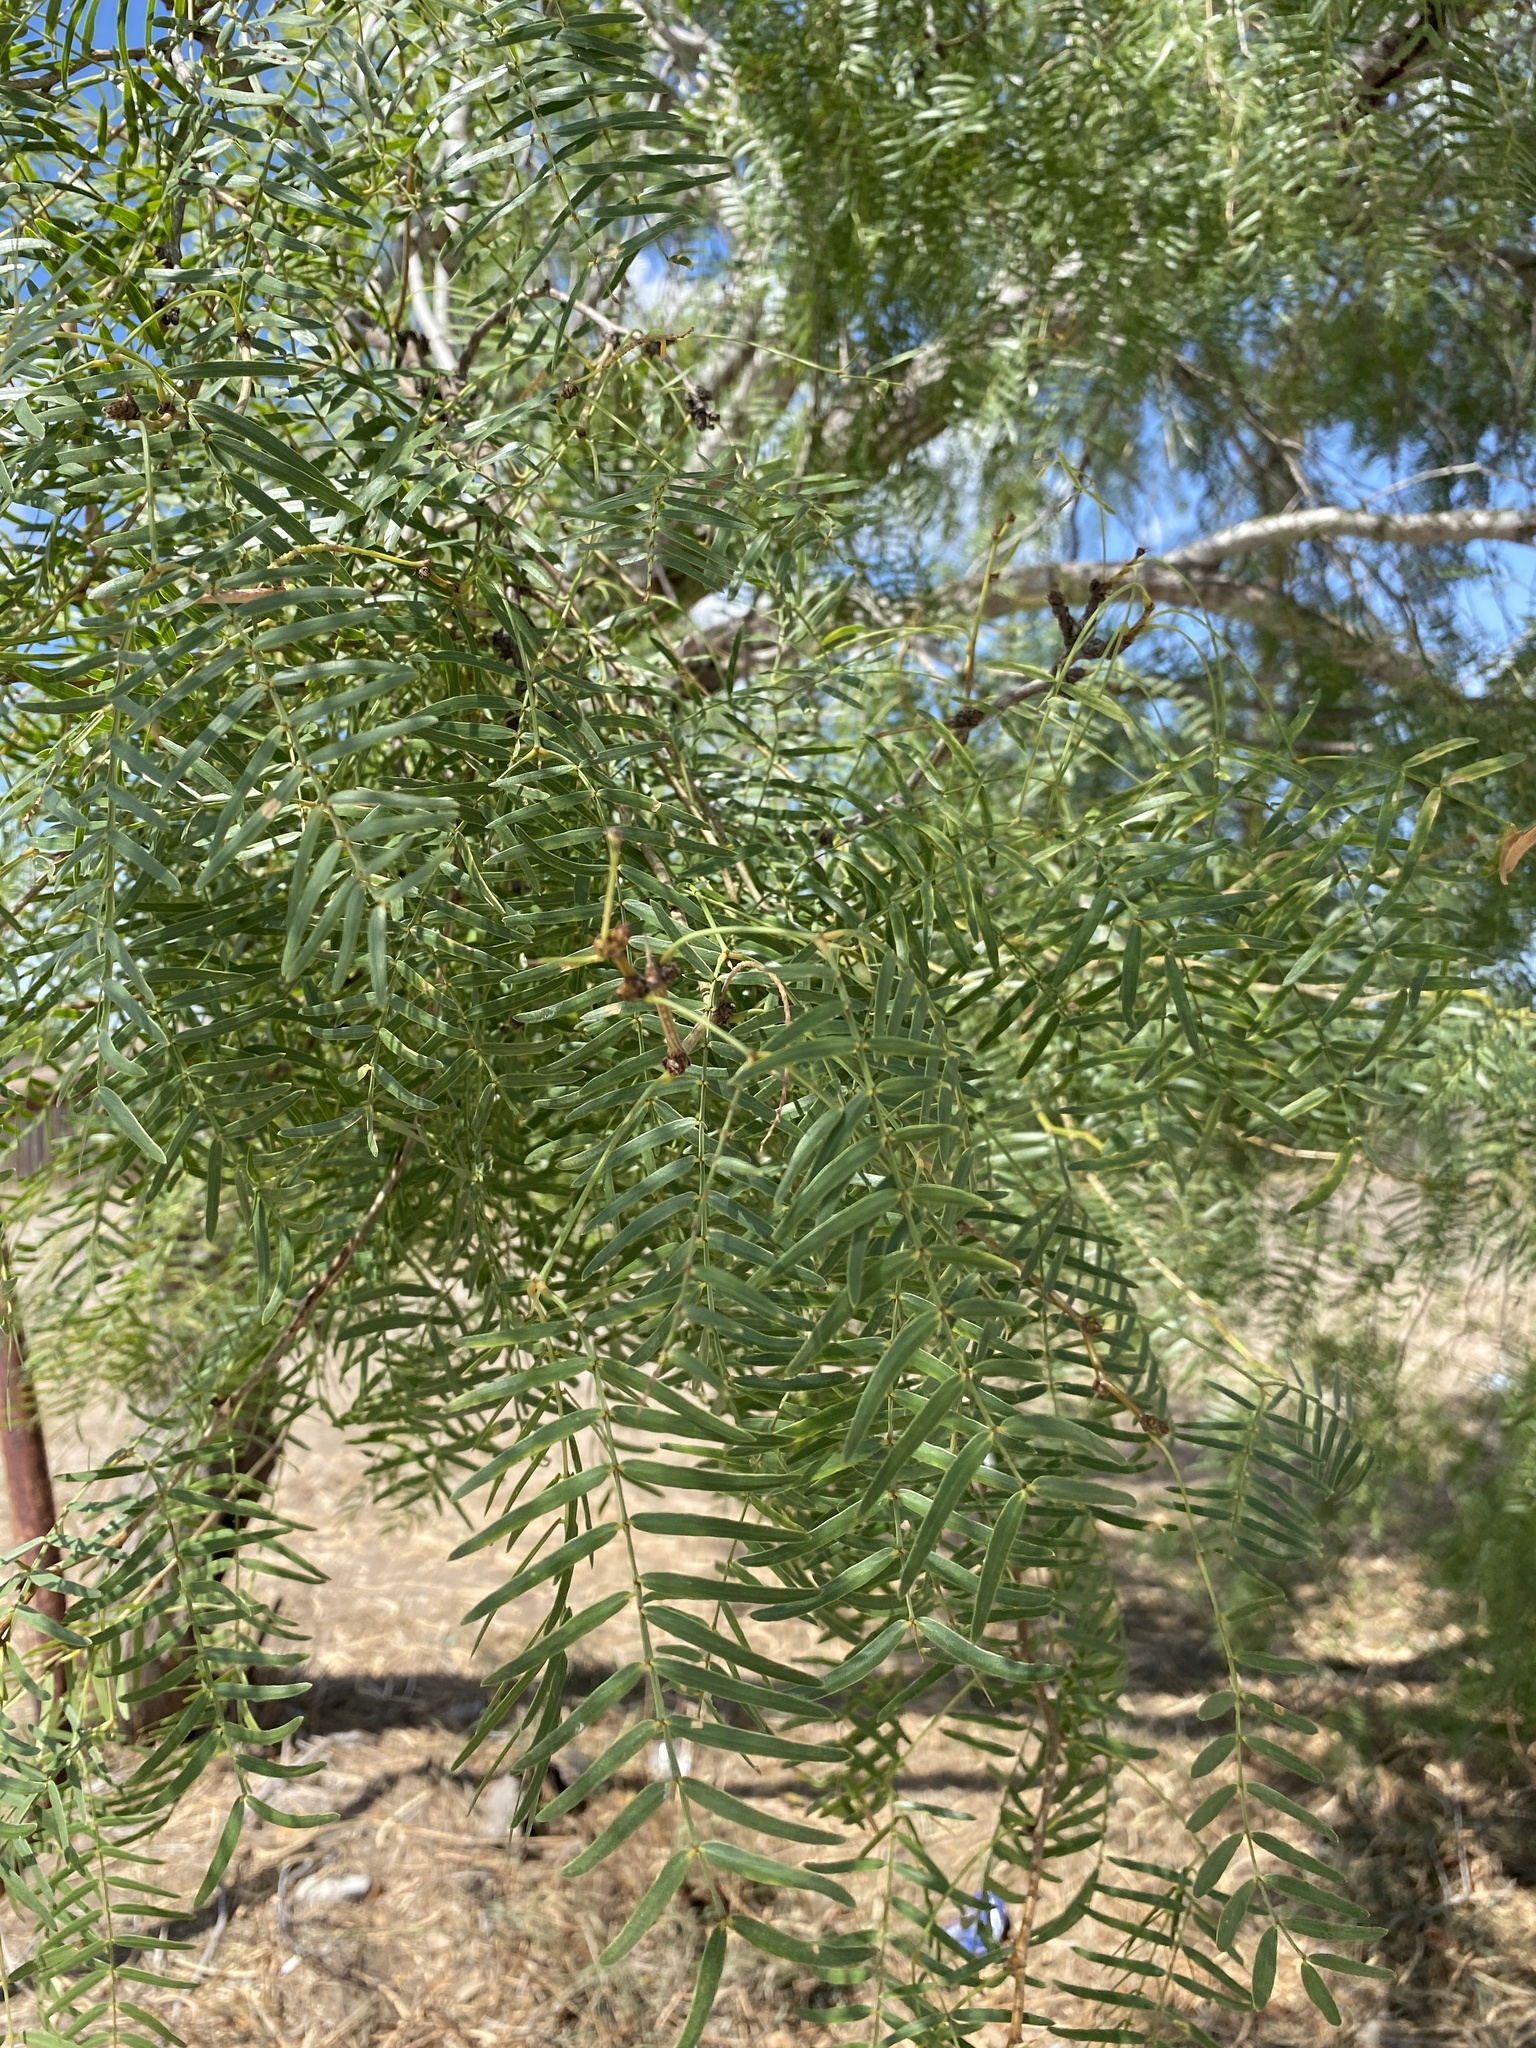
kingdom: Plantae
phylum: Tracheophyta
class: Magnoliopsida
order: Fabales
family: Fabaceae
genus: Prosopis
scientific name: Prosopis glandulosa
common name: Honey mesquite
